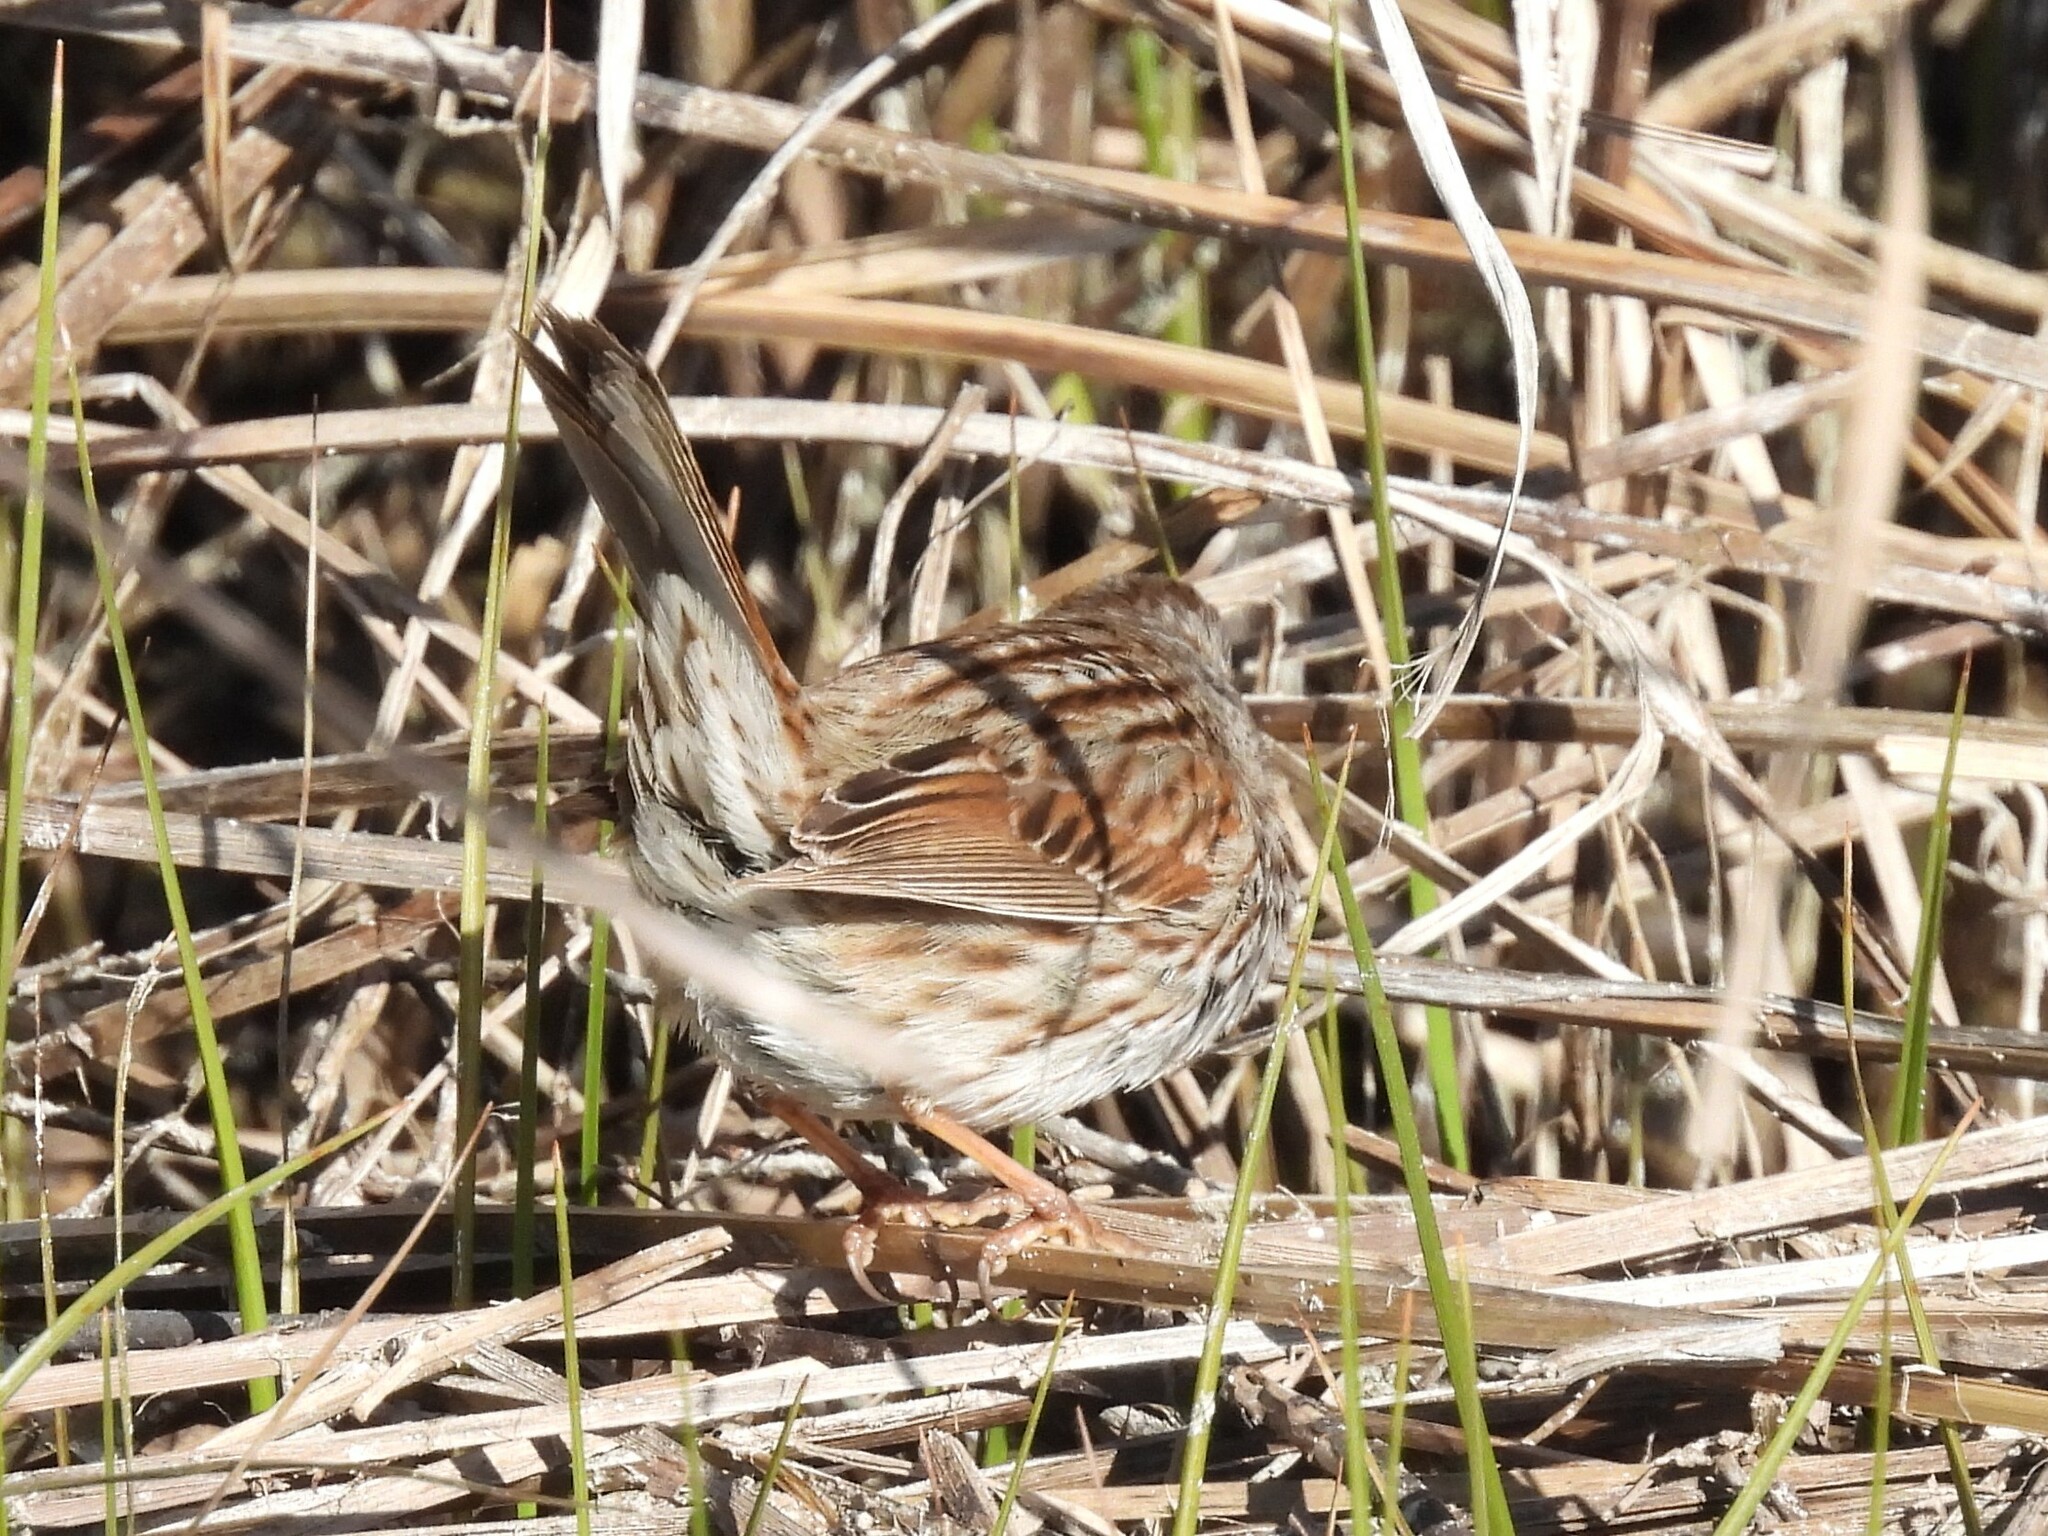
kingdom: Animalia
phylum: Chordata
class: Aves
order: Passeriformes
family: Passerellidae
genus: Melospiza
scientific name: Melospiza melodia
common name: Song sparrow
